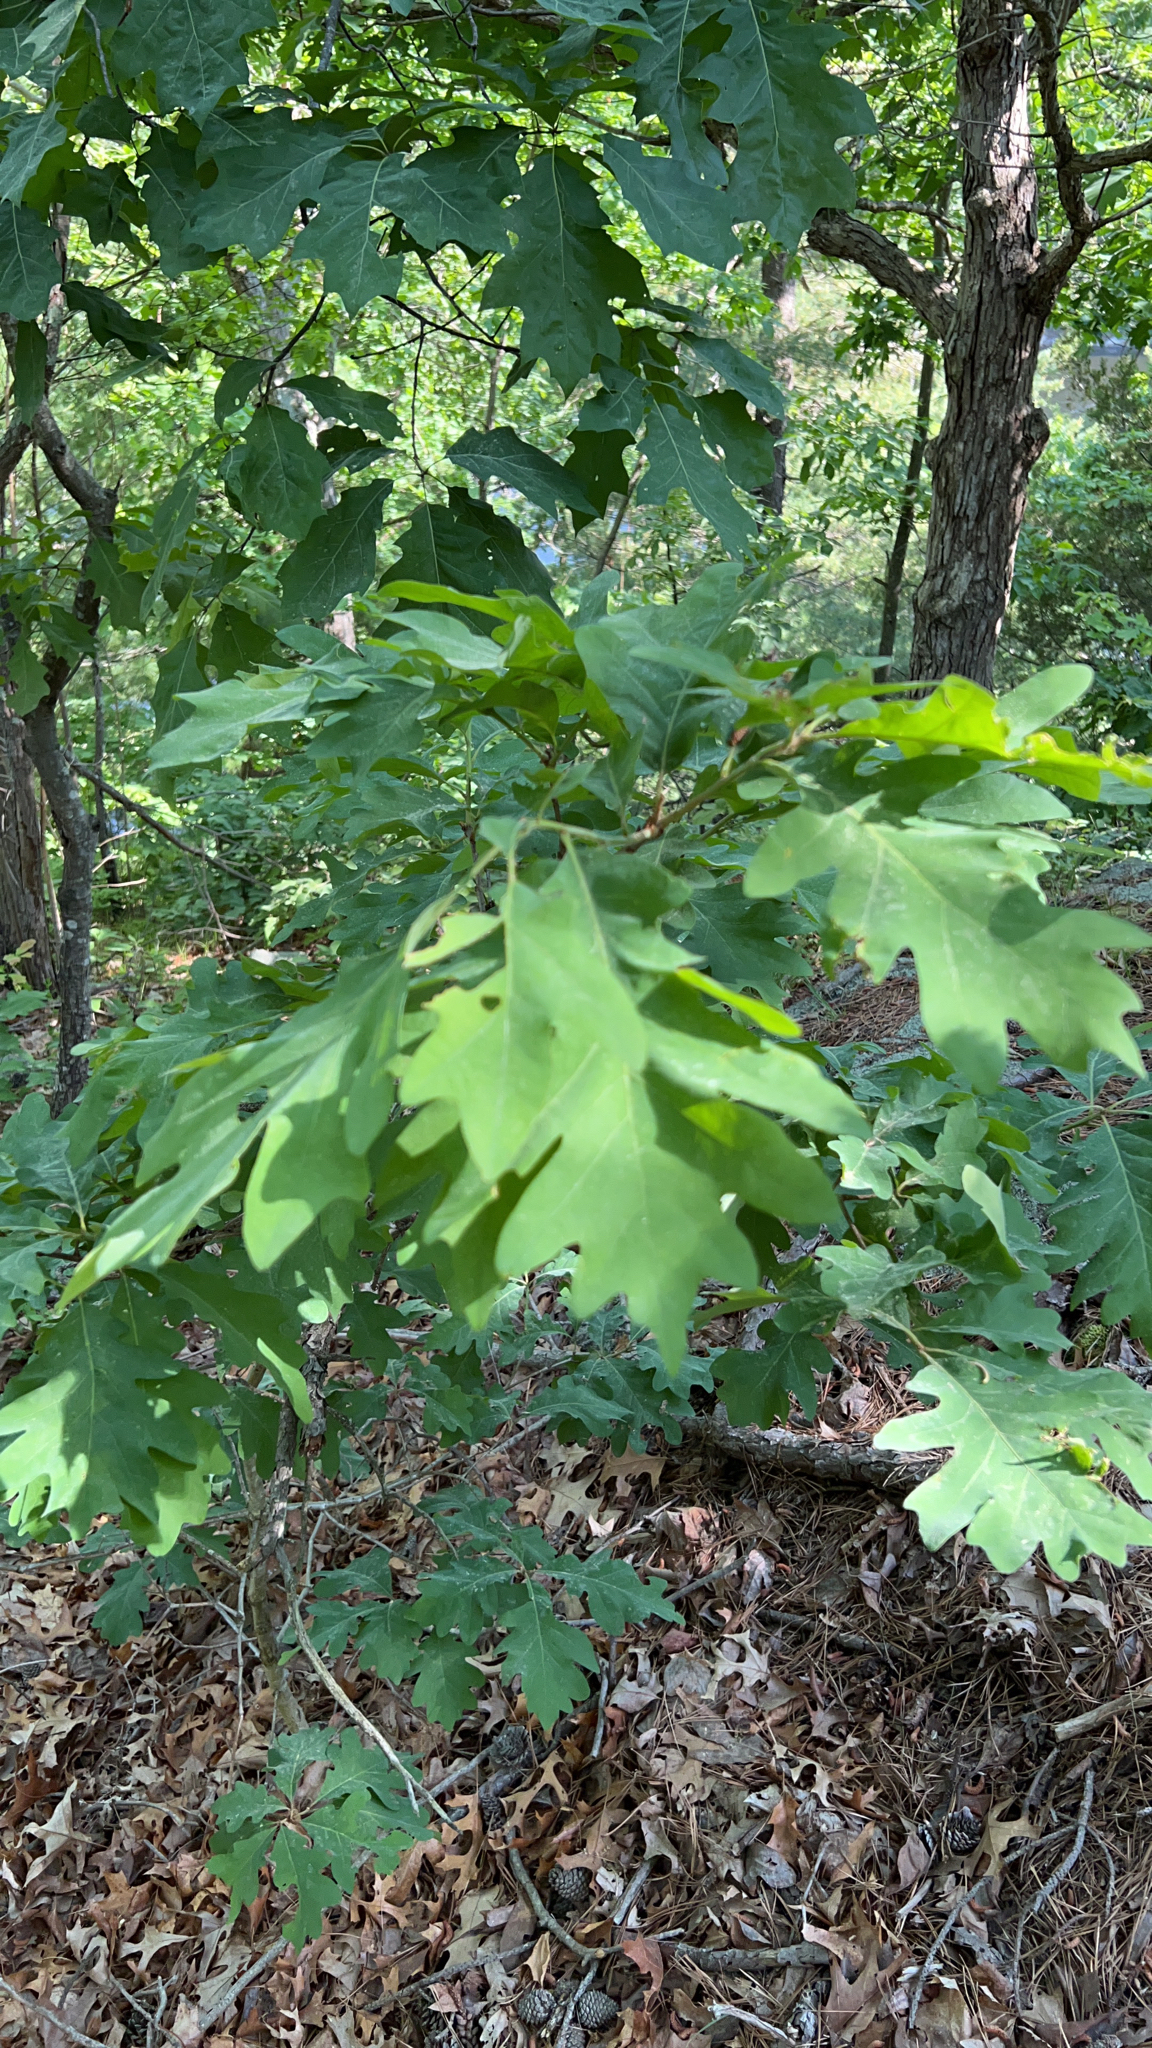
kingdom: Plantae
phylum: Tracheophyta
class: Magnoliopsida
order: Fagales
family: Fagaceae
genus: Quercus
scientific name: Quercus alba
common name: White oak
